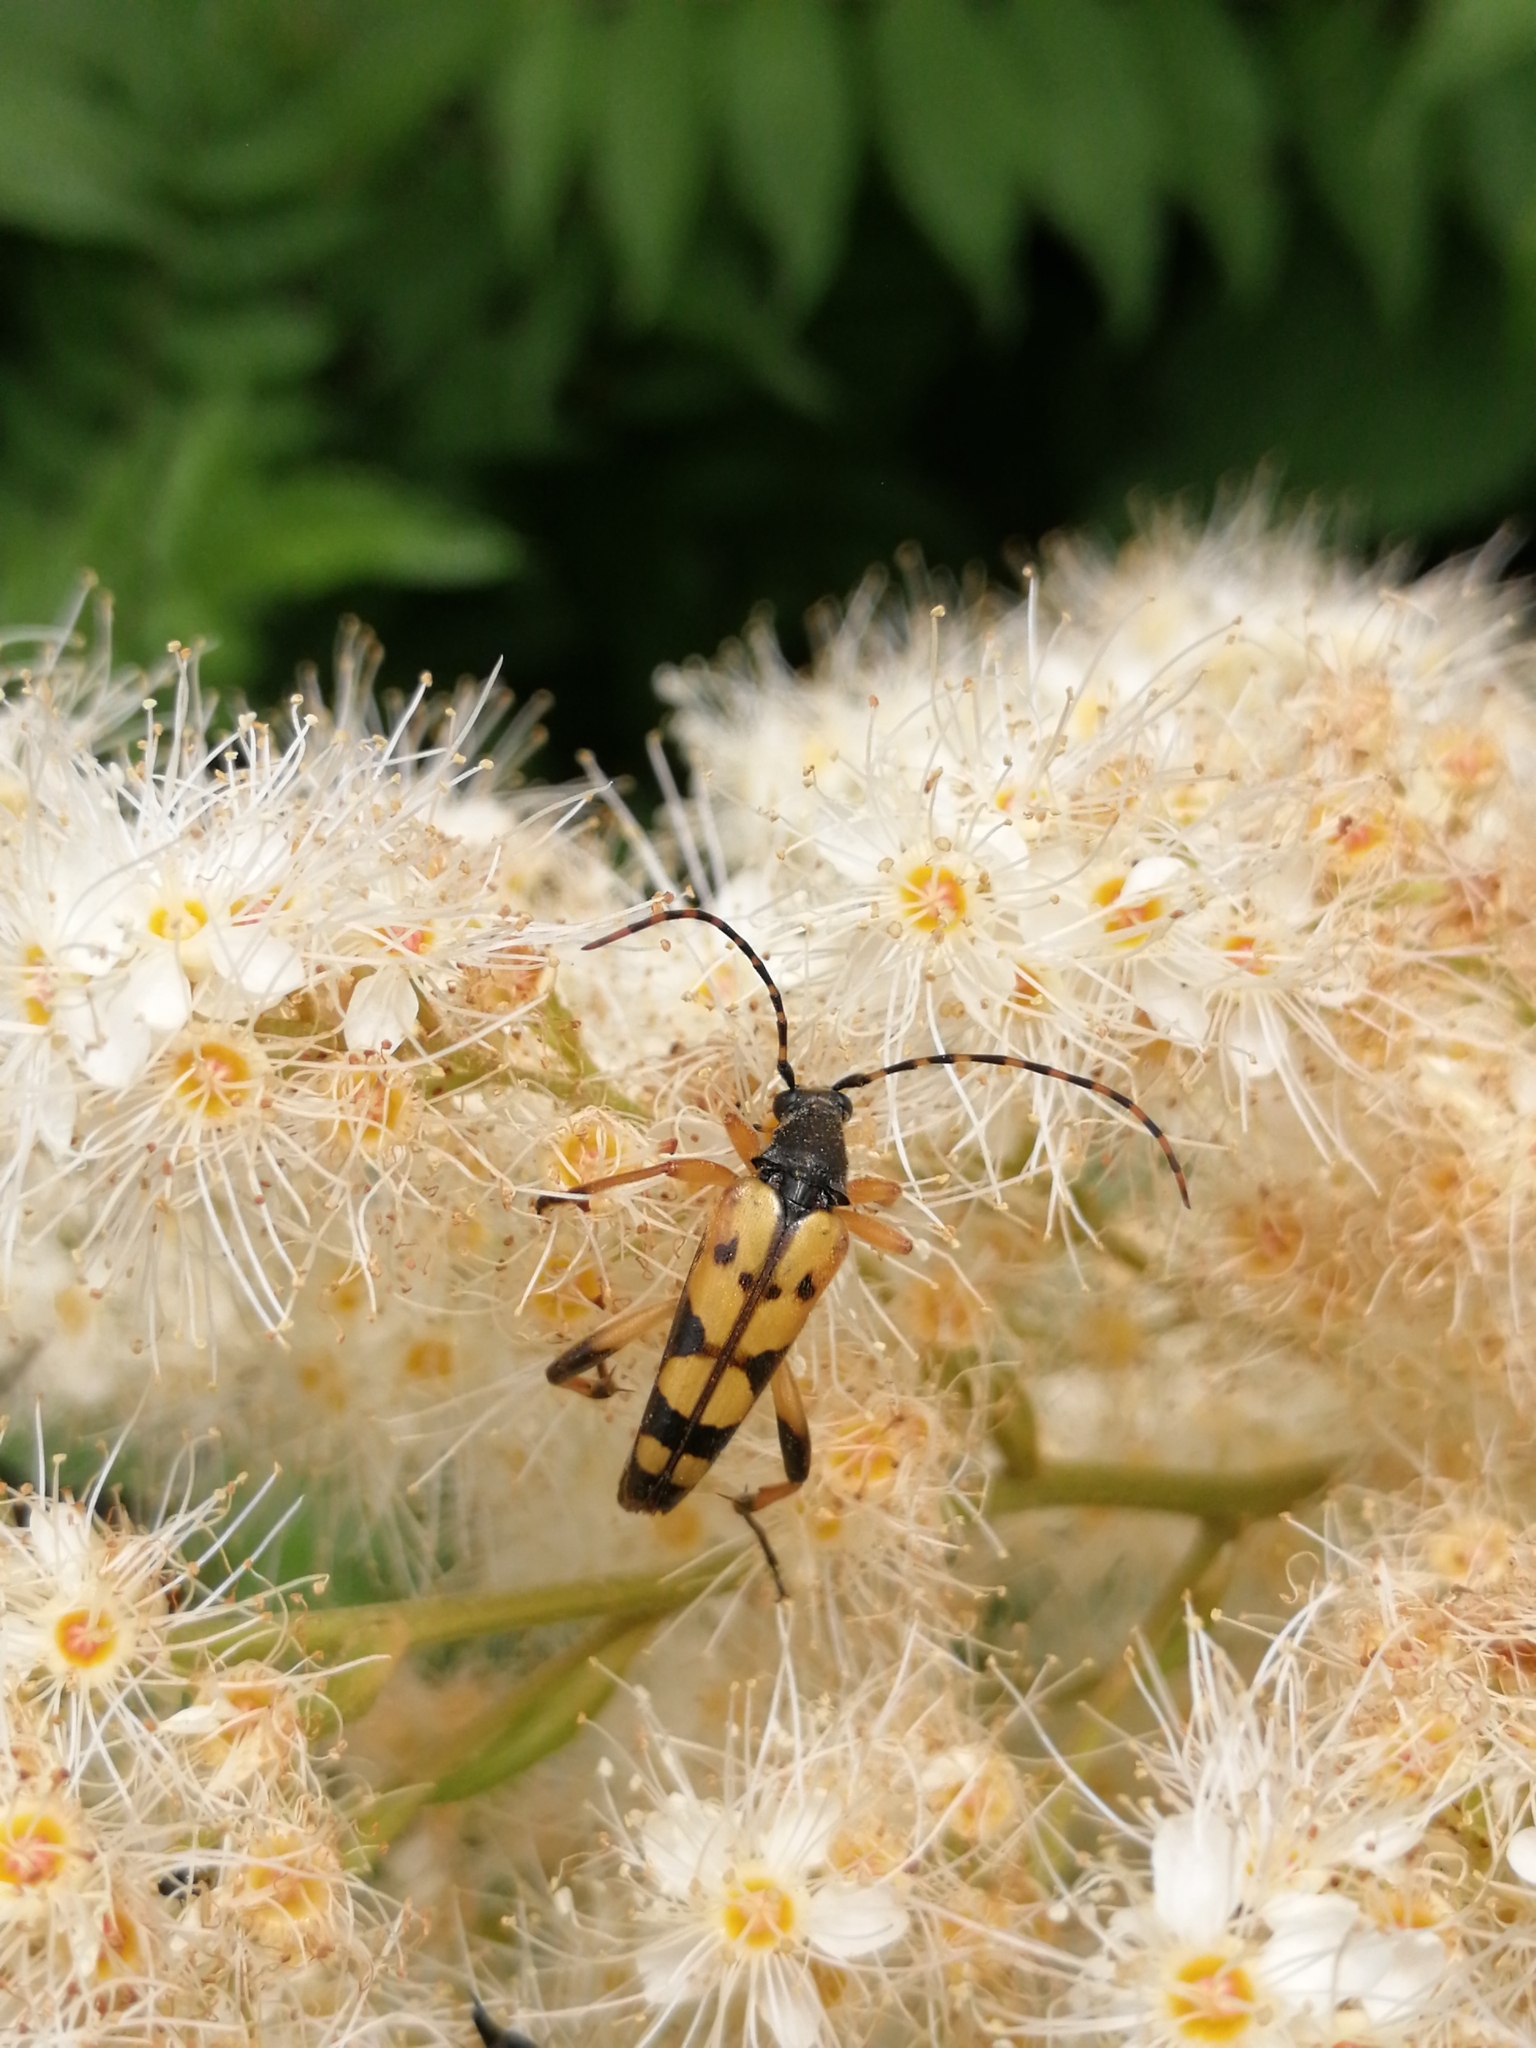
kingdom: Animalia
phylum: Arthropoda
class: Insecta
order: Coleoptera
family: Cerambycidae
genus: Rutpela
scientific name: Rutpela maculata
